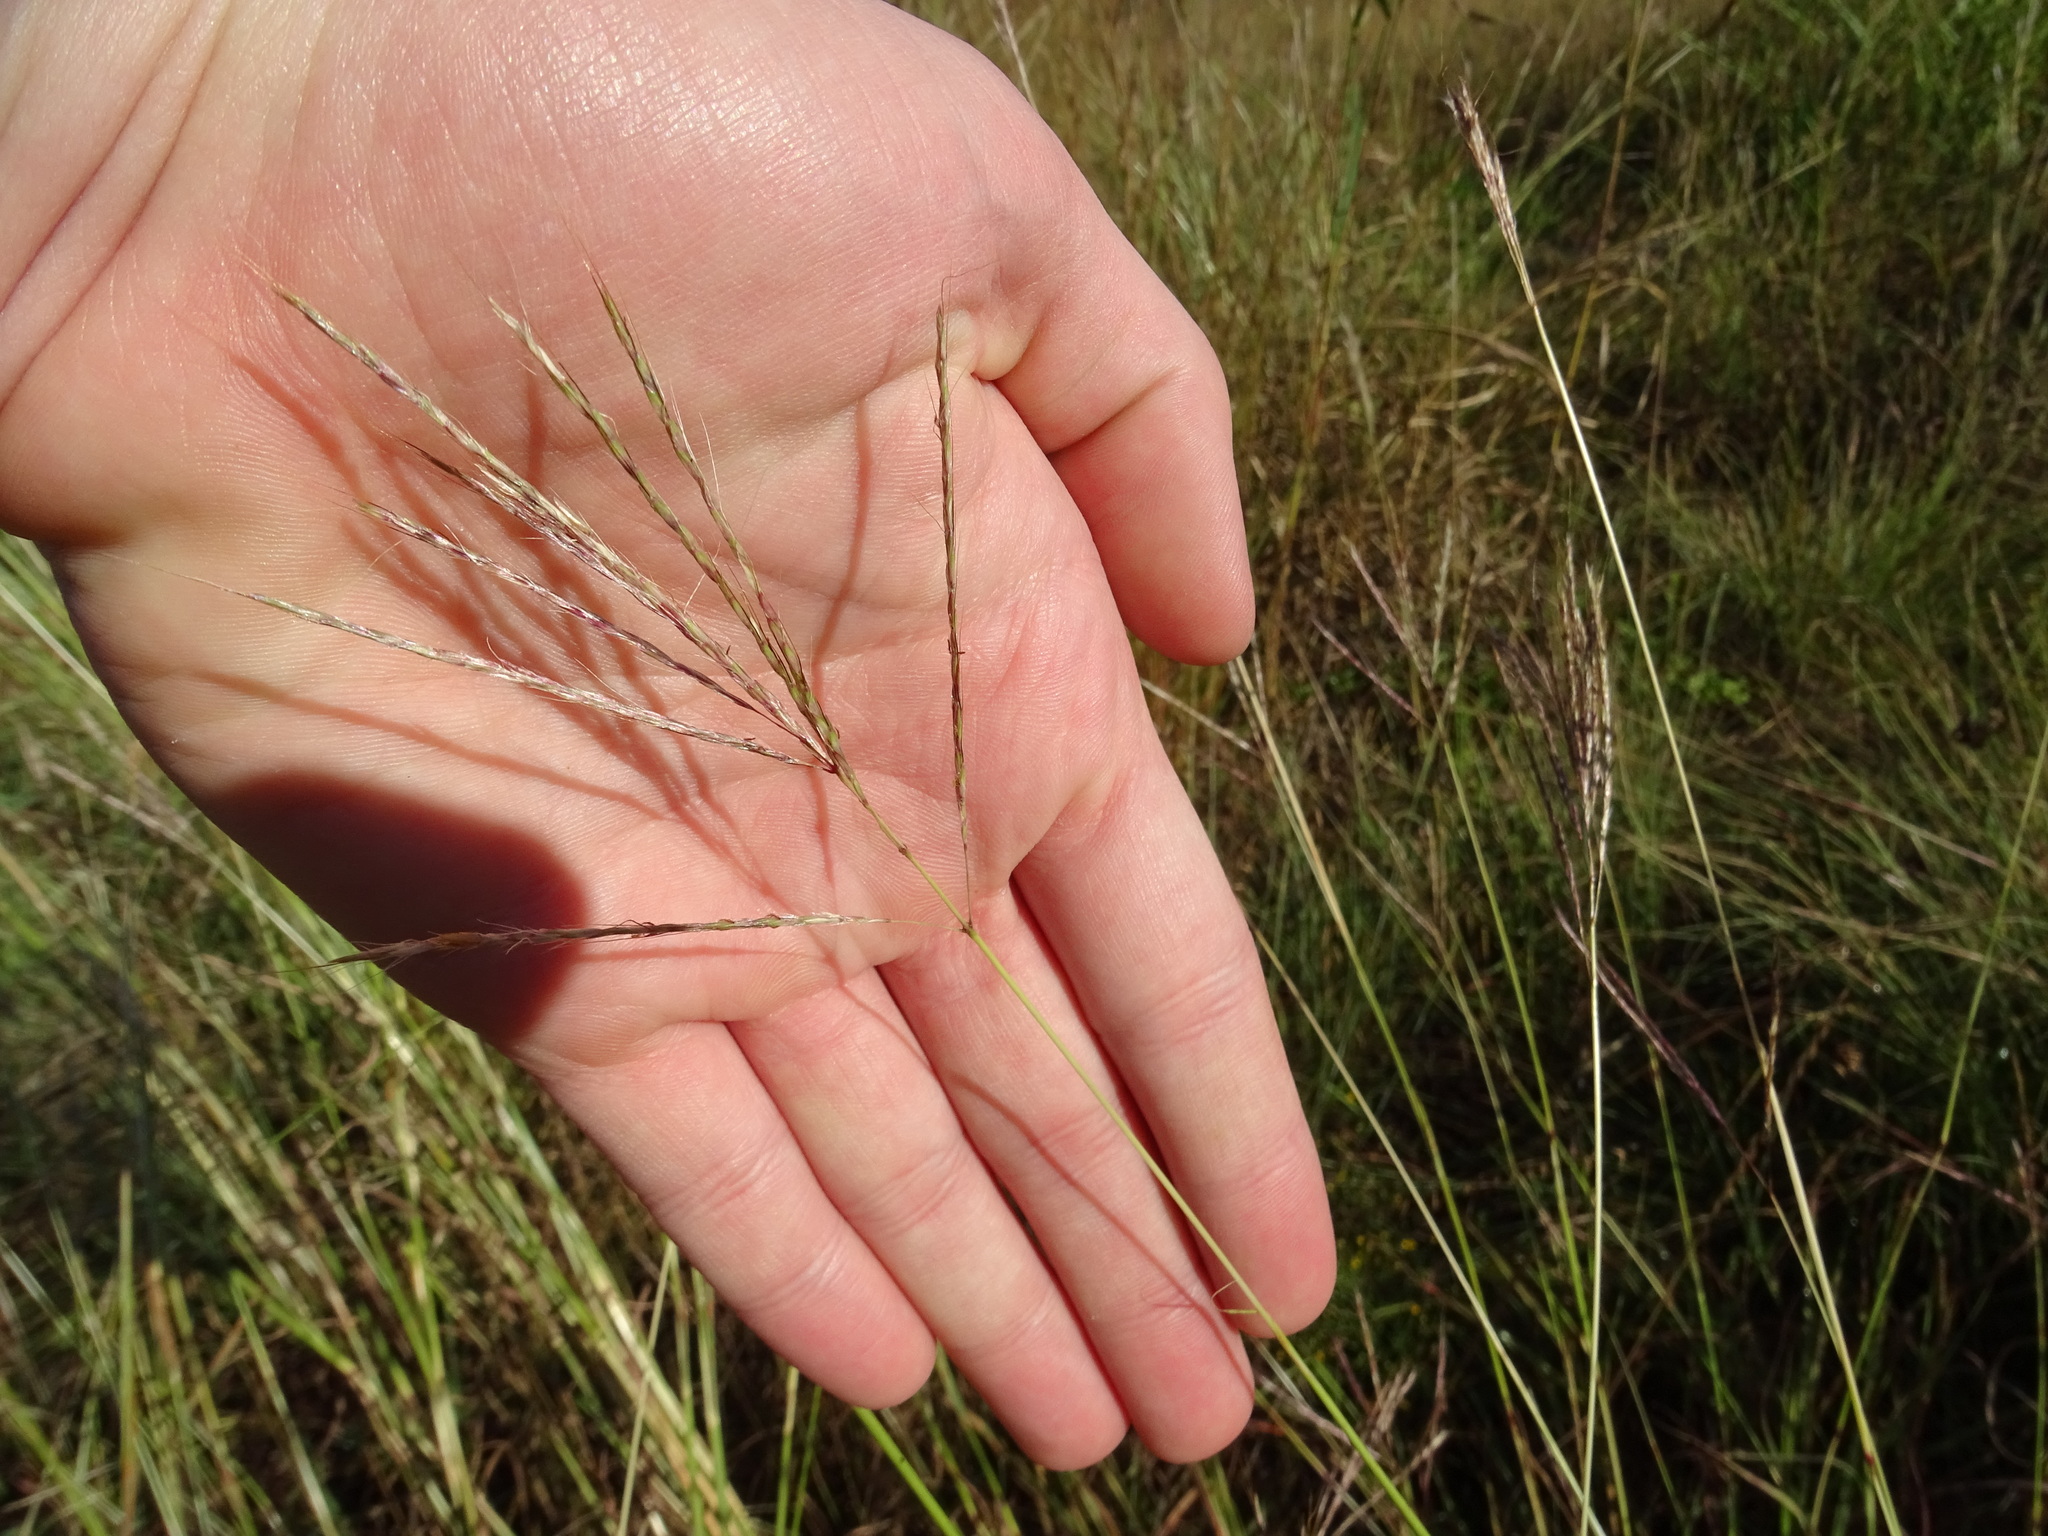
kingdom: Plantae
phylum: Tracheophyta
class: Liliopsida
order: Poales
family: Poaceae
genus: Bothriochloa
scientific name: Bothriochloa ischaemum
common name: Yellow bluestem
